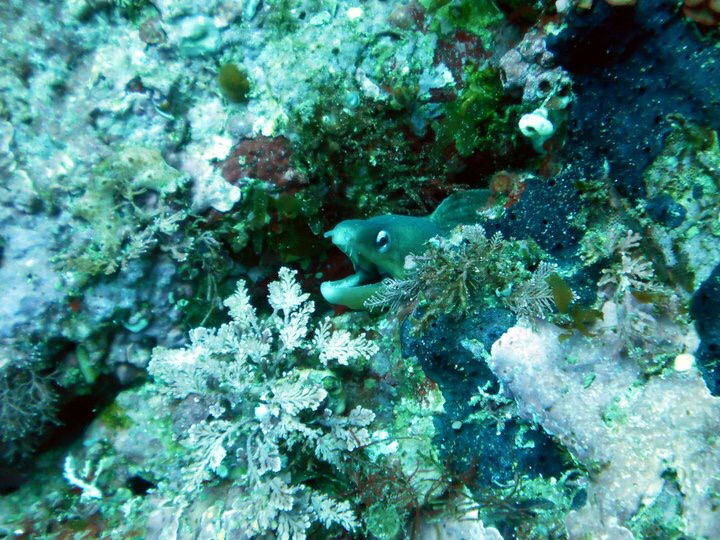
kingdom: Animalia
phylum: Chordata
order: Anguilliformes
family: Muraenidae
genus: Gymnothorax
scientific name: Gymnothorax nubilus
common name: Grey moray
